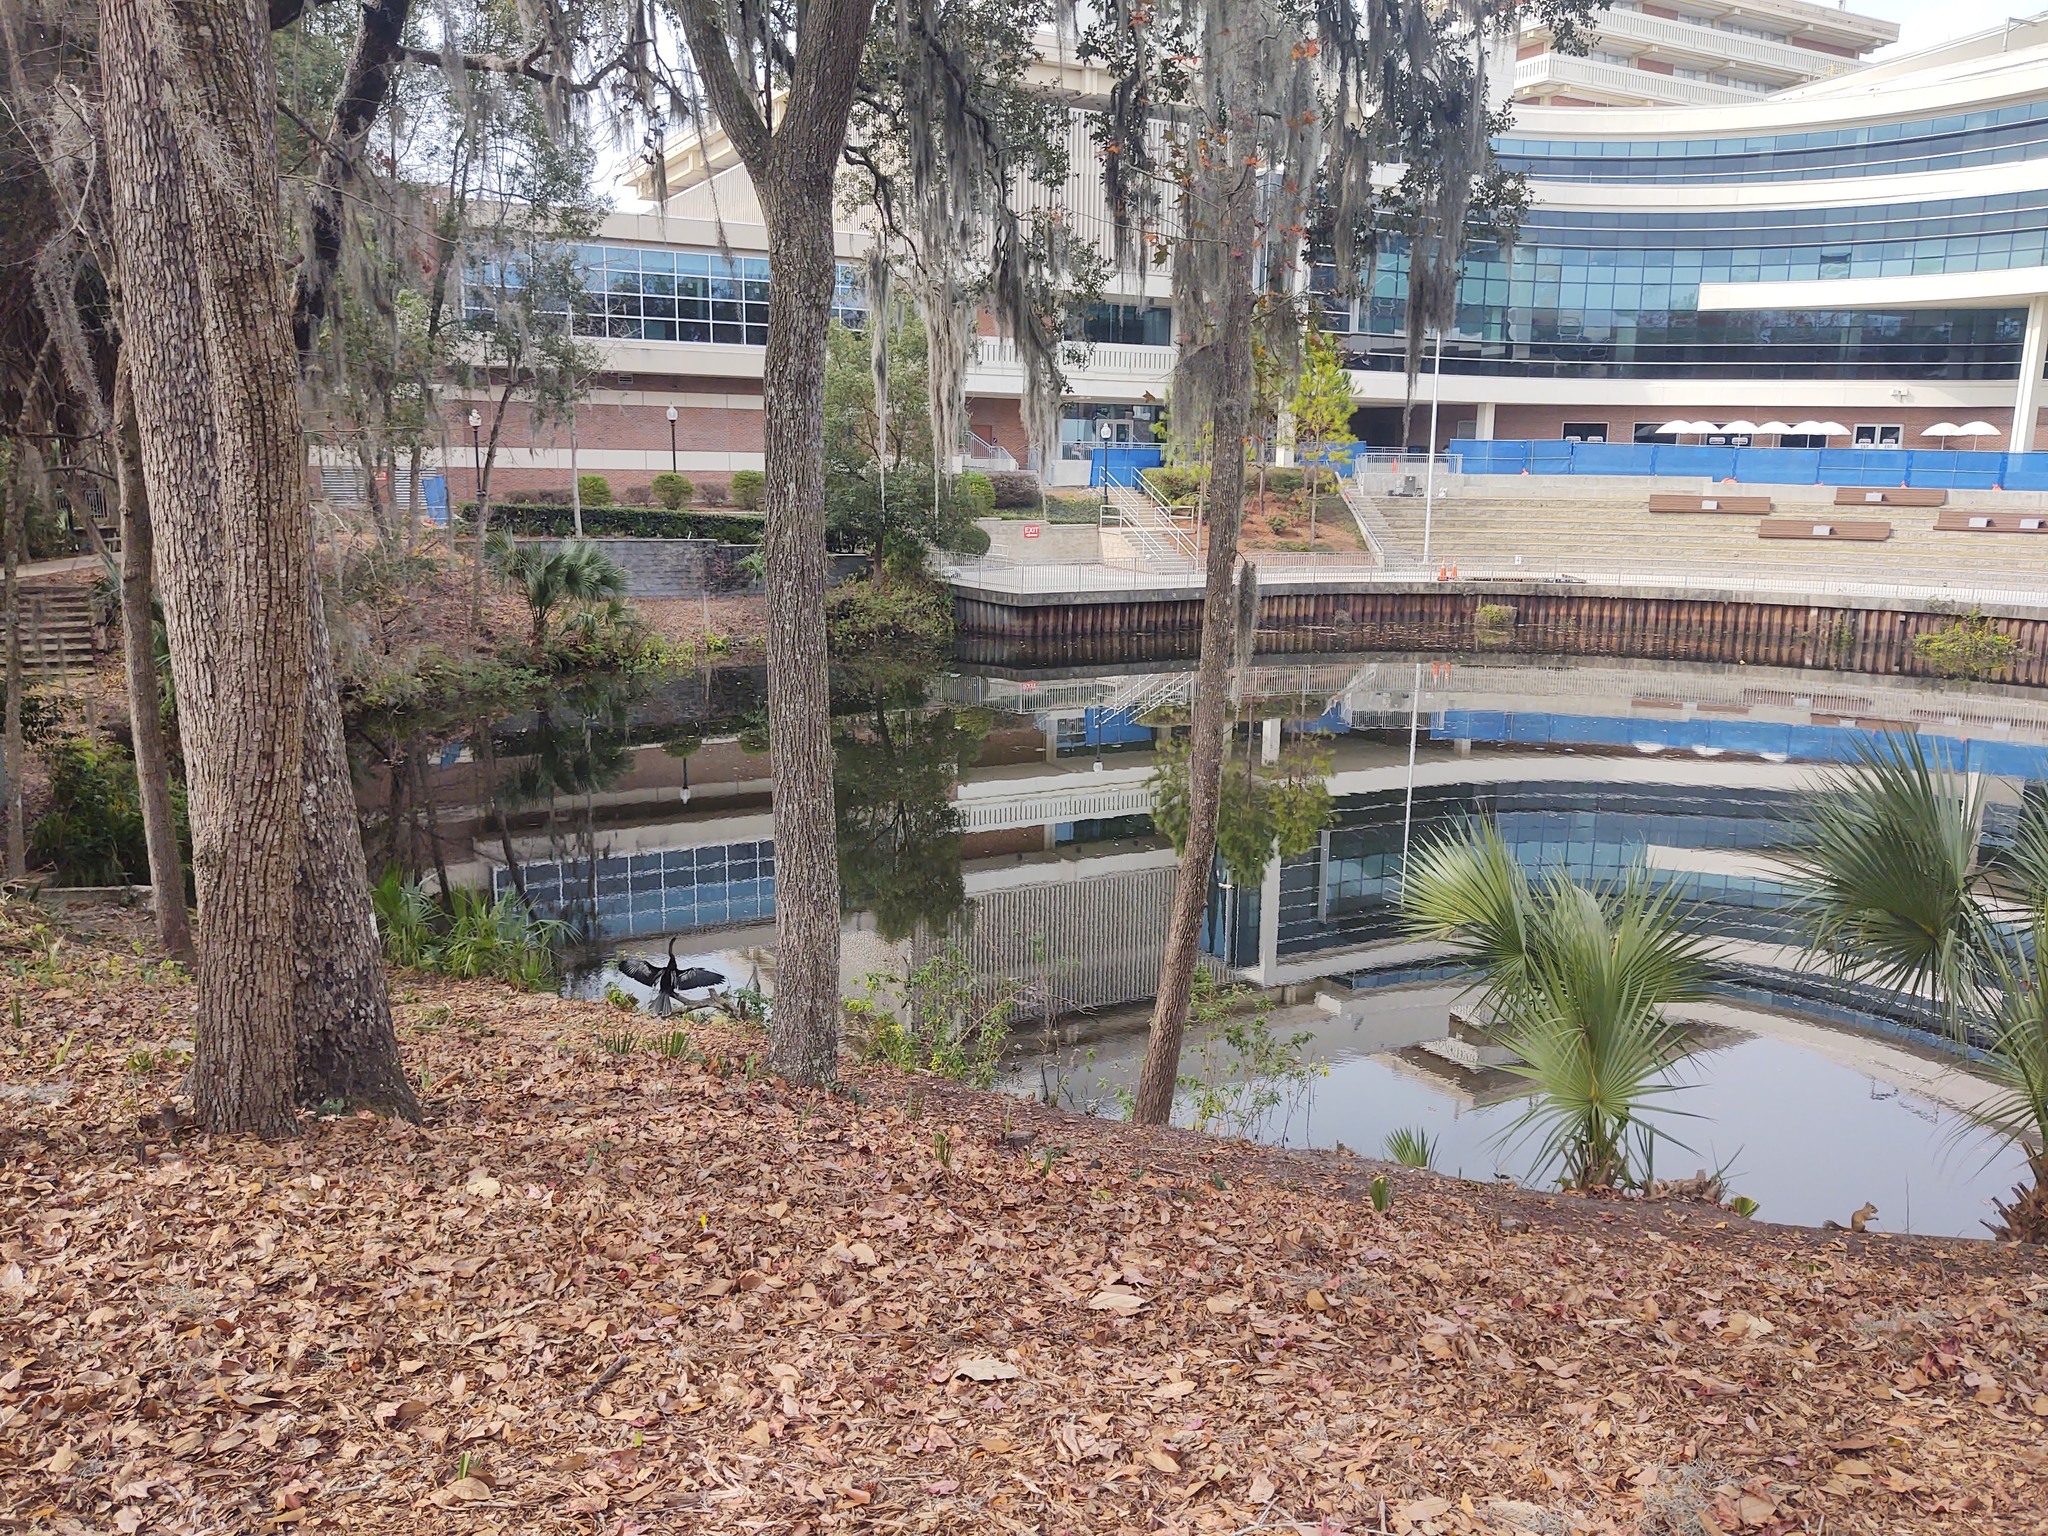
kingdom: Animalia
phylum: Chordata
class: Aves
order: Suliformes
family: Anhingidae
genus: Anhinga
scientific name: Anhinga anhinga
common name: Anhinga
